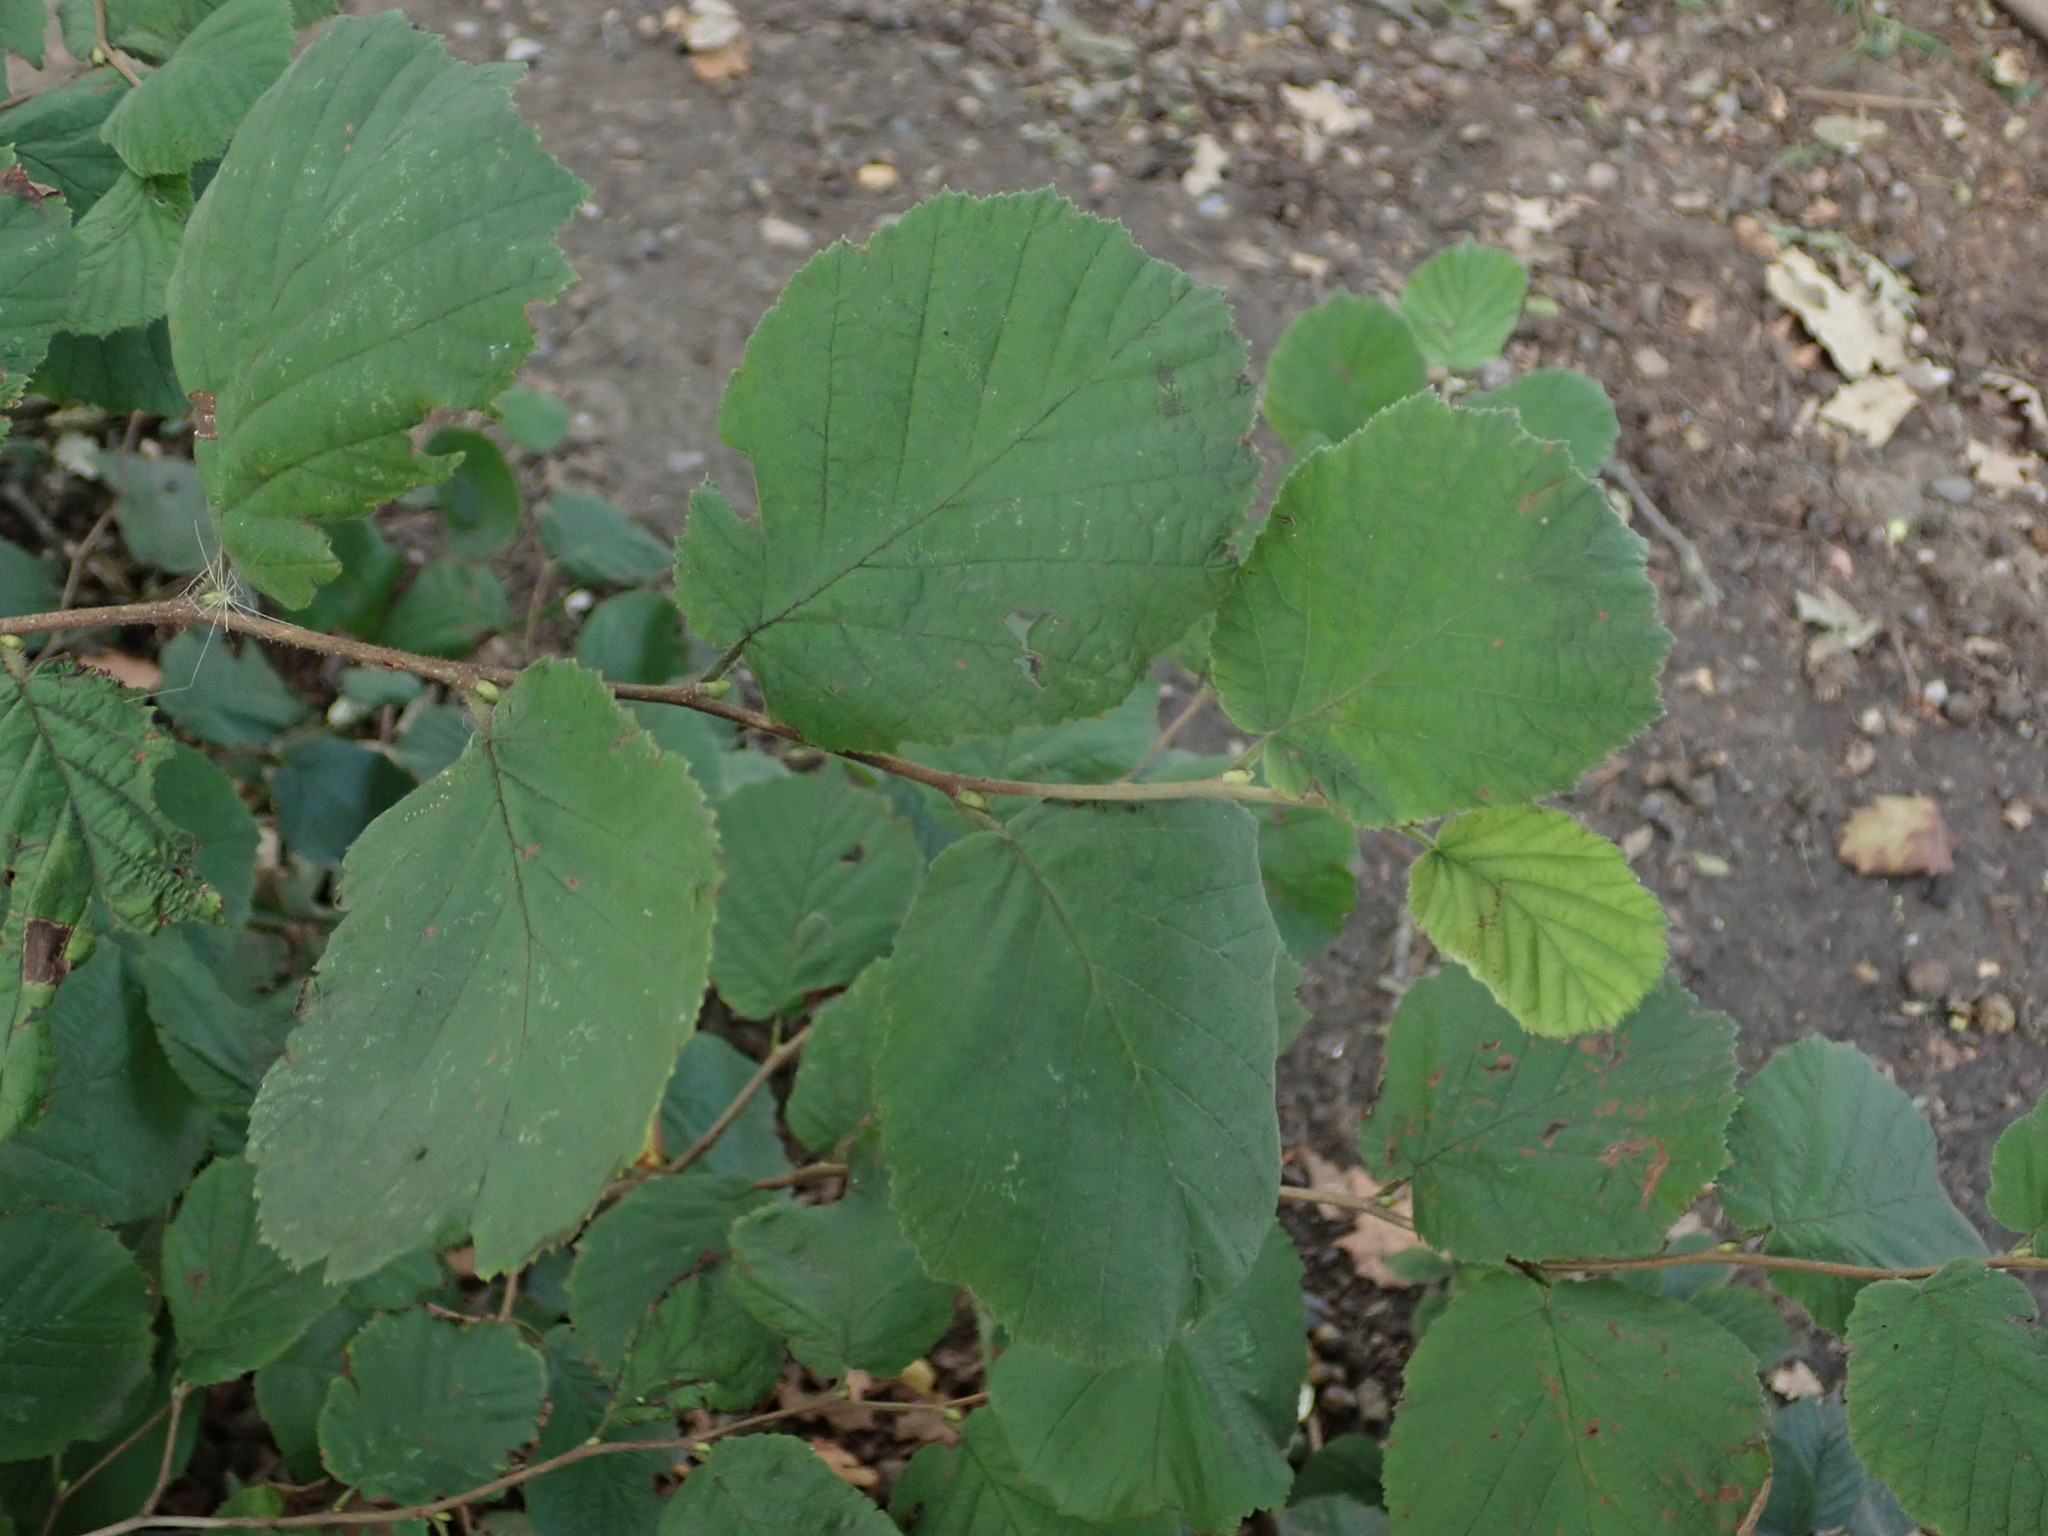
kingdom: Plantae
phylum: Tracheophyta
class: Magnoliopsida
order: Fagales
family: Betulaceae
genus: Corylus
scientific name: Corylus avellana
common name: European hazel
